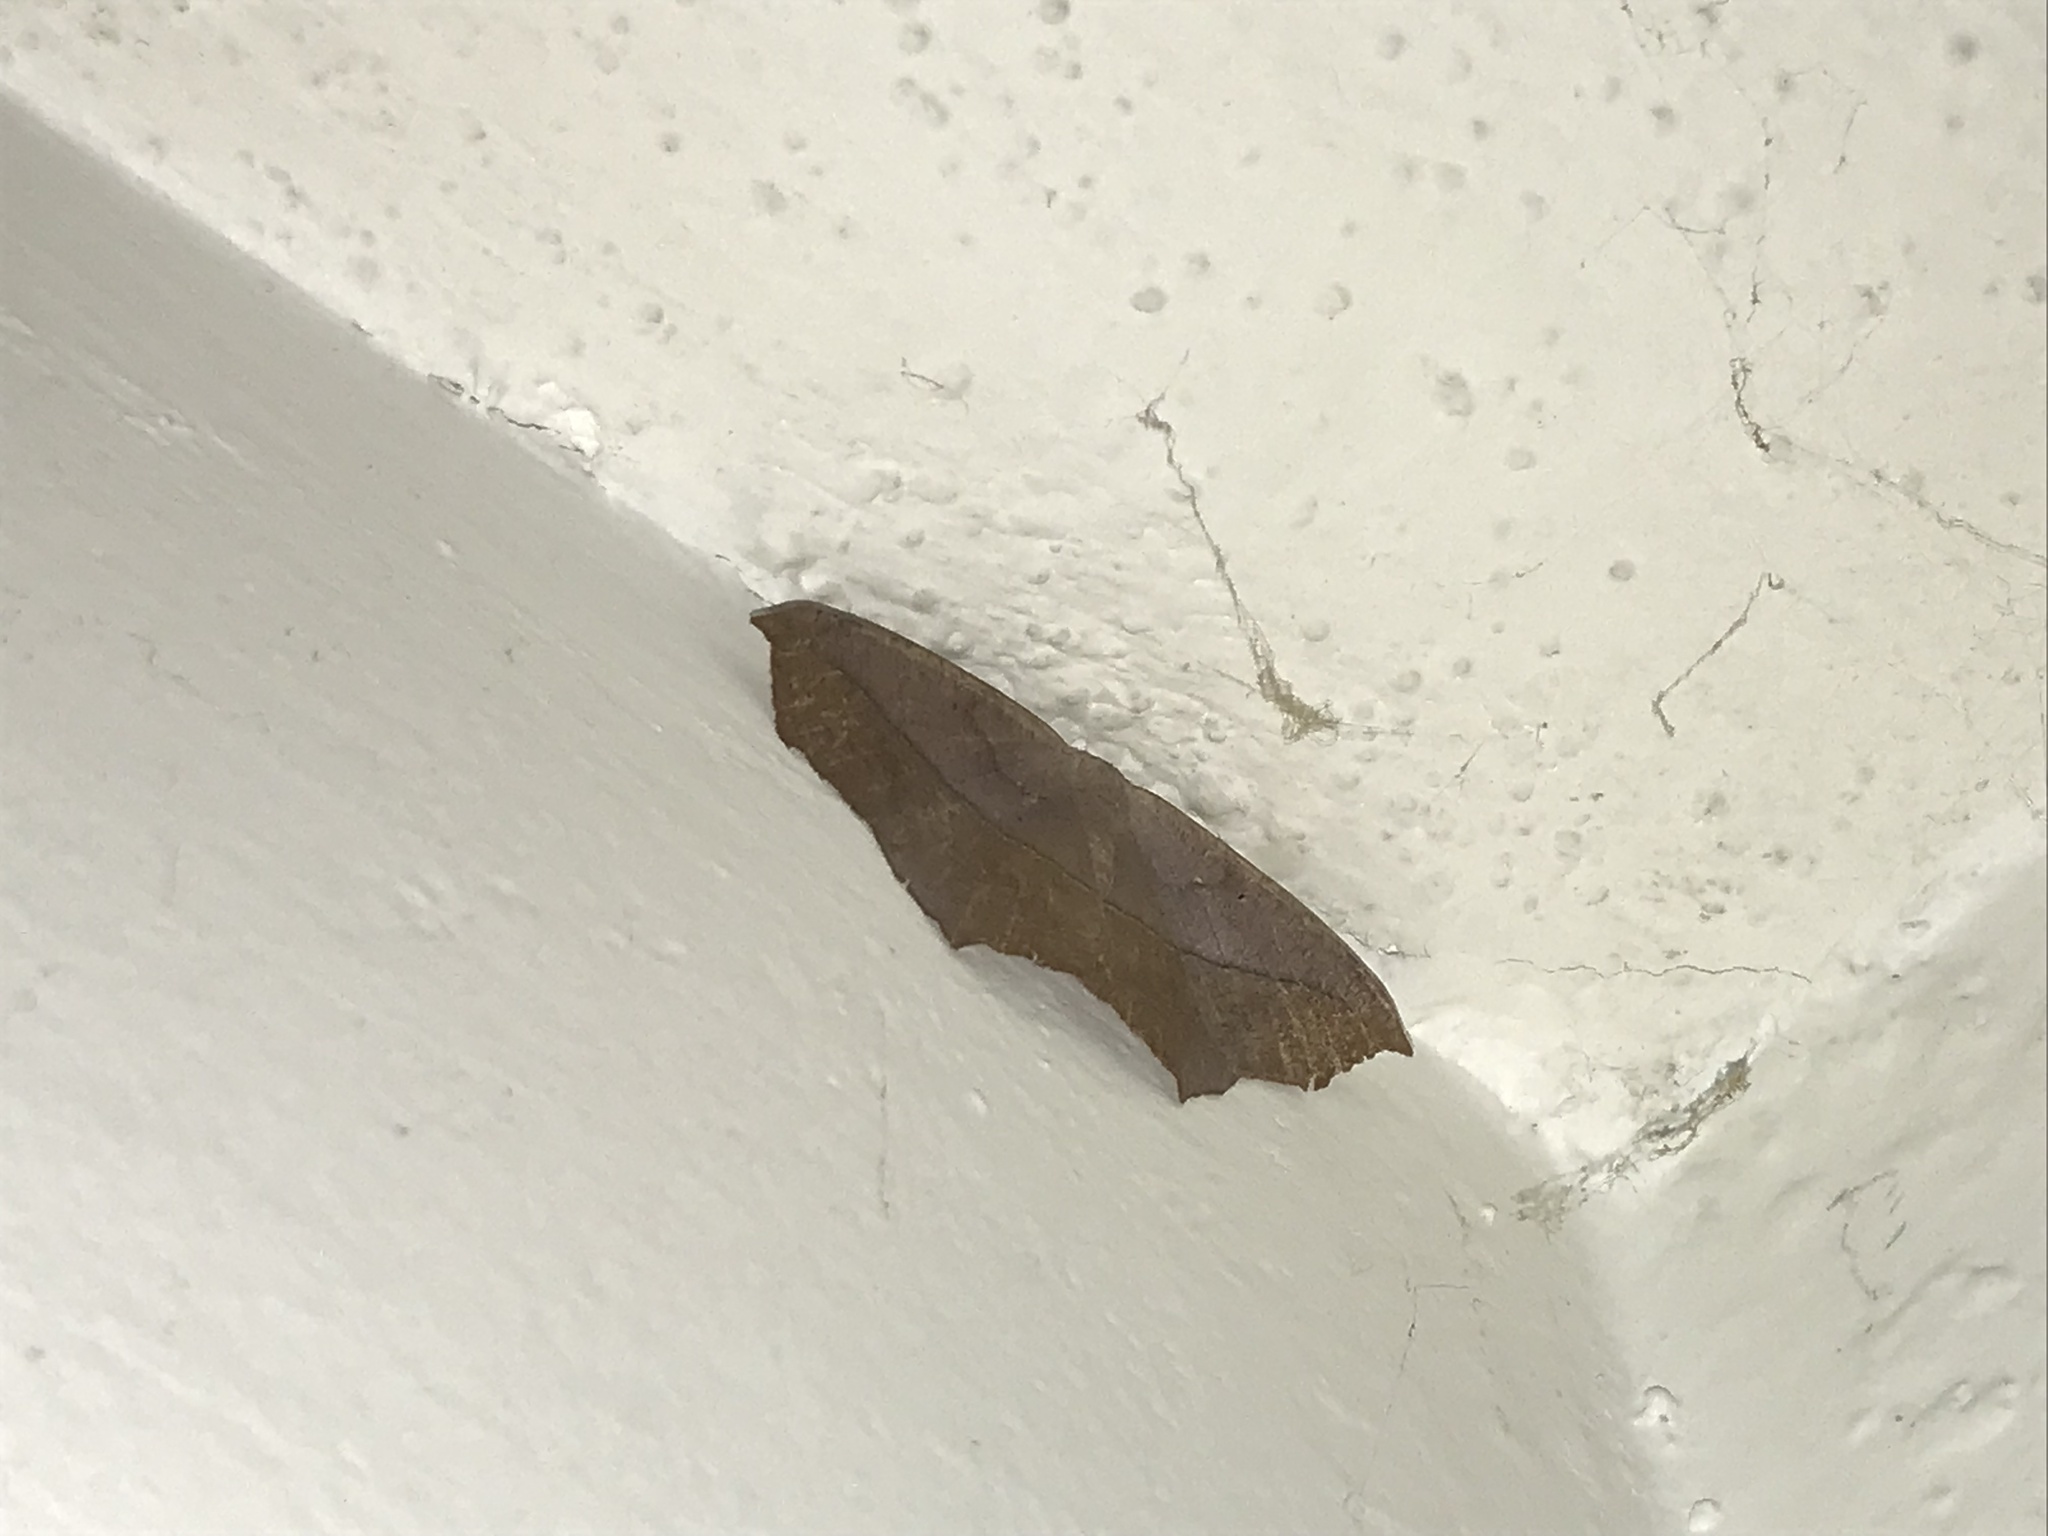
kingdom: Animalia
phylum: Arthropoda
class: Insecta
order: Lepidoptera
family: Geometridae
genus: Prochoerodes
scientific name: Prochoerodes lineola
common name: Large maple spanworm
